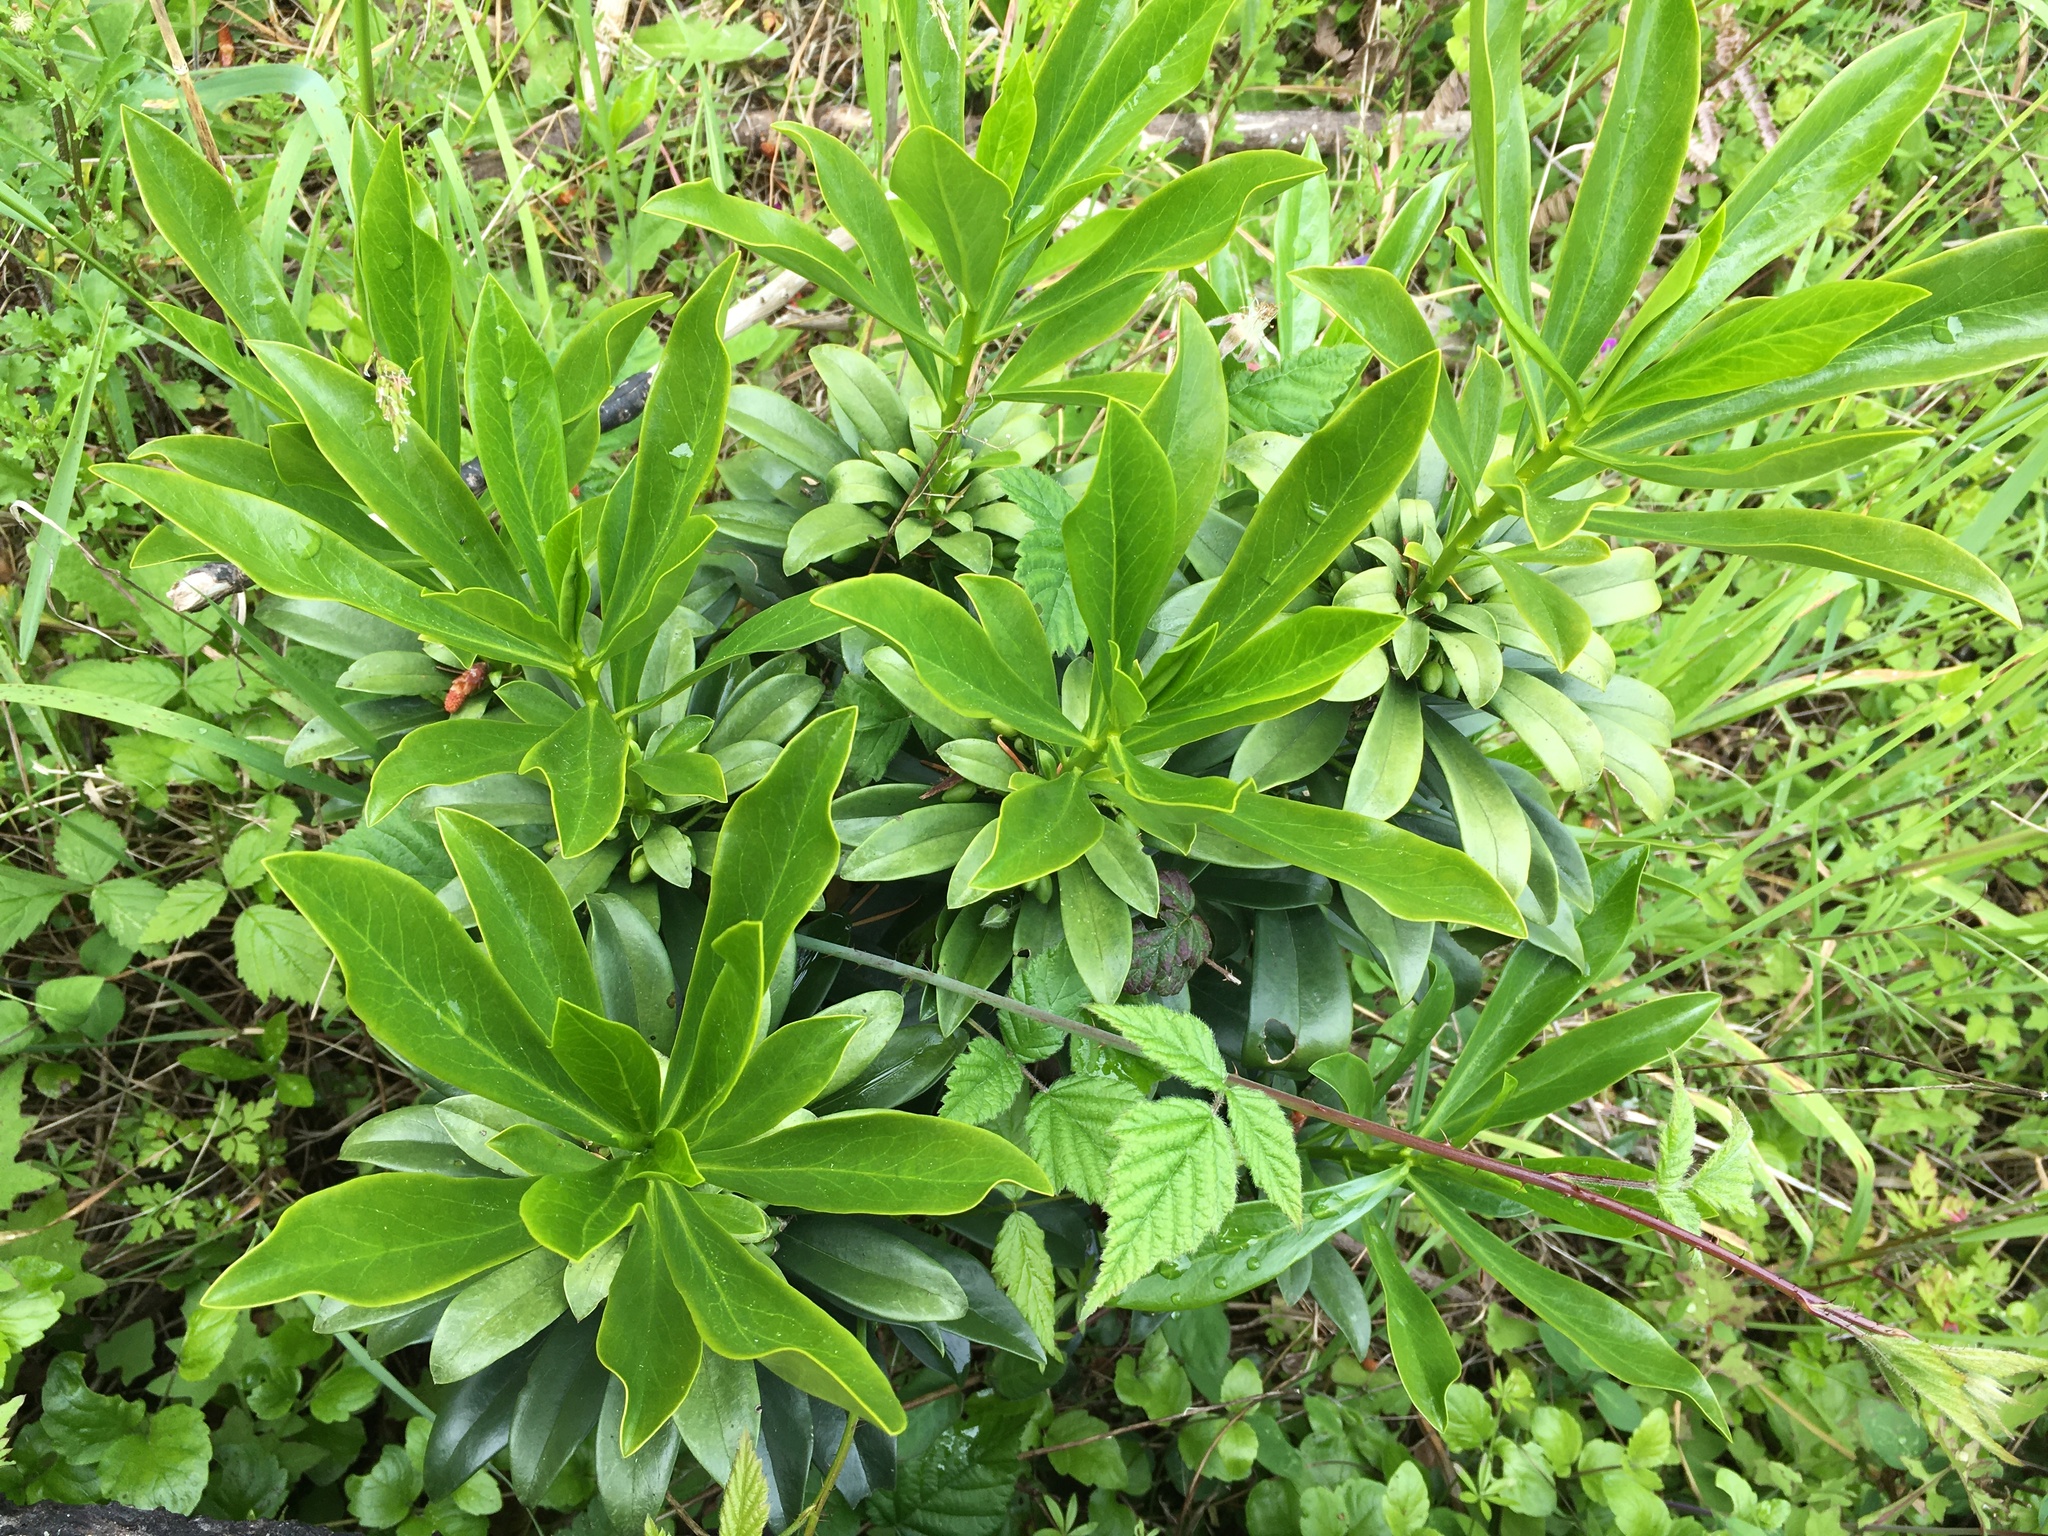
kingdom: Plantae
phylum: Tracheophyta
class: Magnoliopsida
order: Malvales
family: Thymelaeaceae
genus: Daphne
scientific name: Daphne laureola
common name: Spurge-laurel
